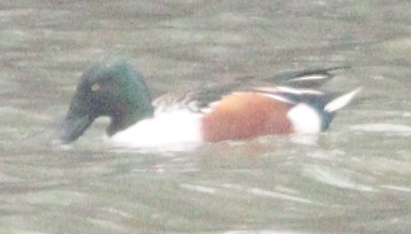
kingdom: Animalia
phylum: Chordata
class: Aves
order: Anseriformes
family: Anatidae
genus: Spatula
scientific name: Spatula clypeata
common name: Northern shoveler
